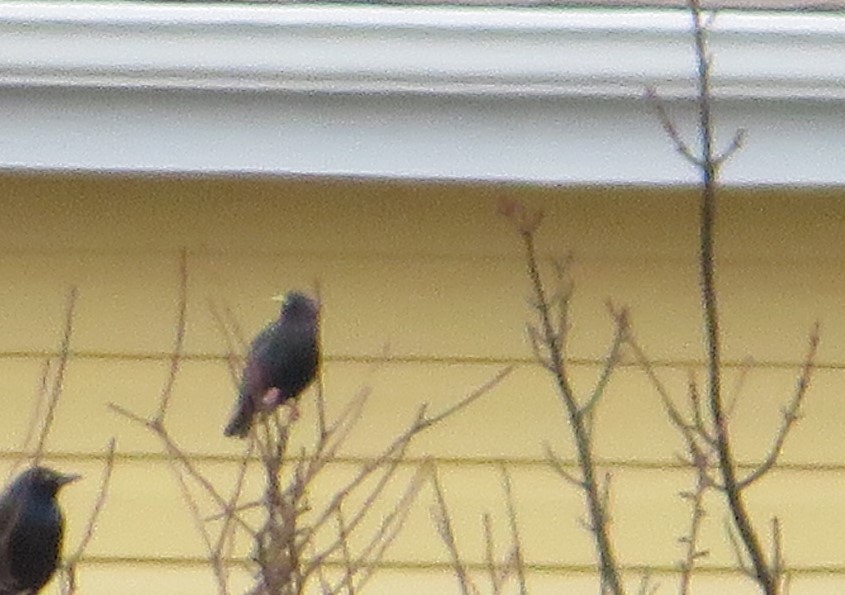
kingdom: Animalia
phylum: Chordata
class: Aves
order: Passeriformes
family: Sturnidae
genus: Sturnus
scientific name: Sturnus vulgaris
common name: Common starling
